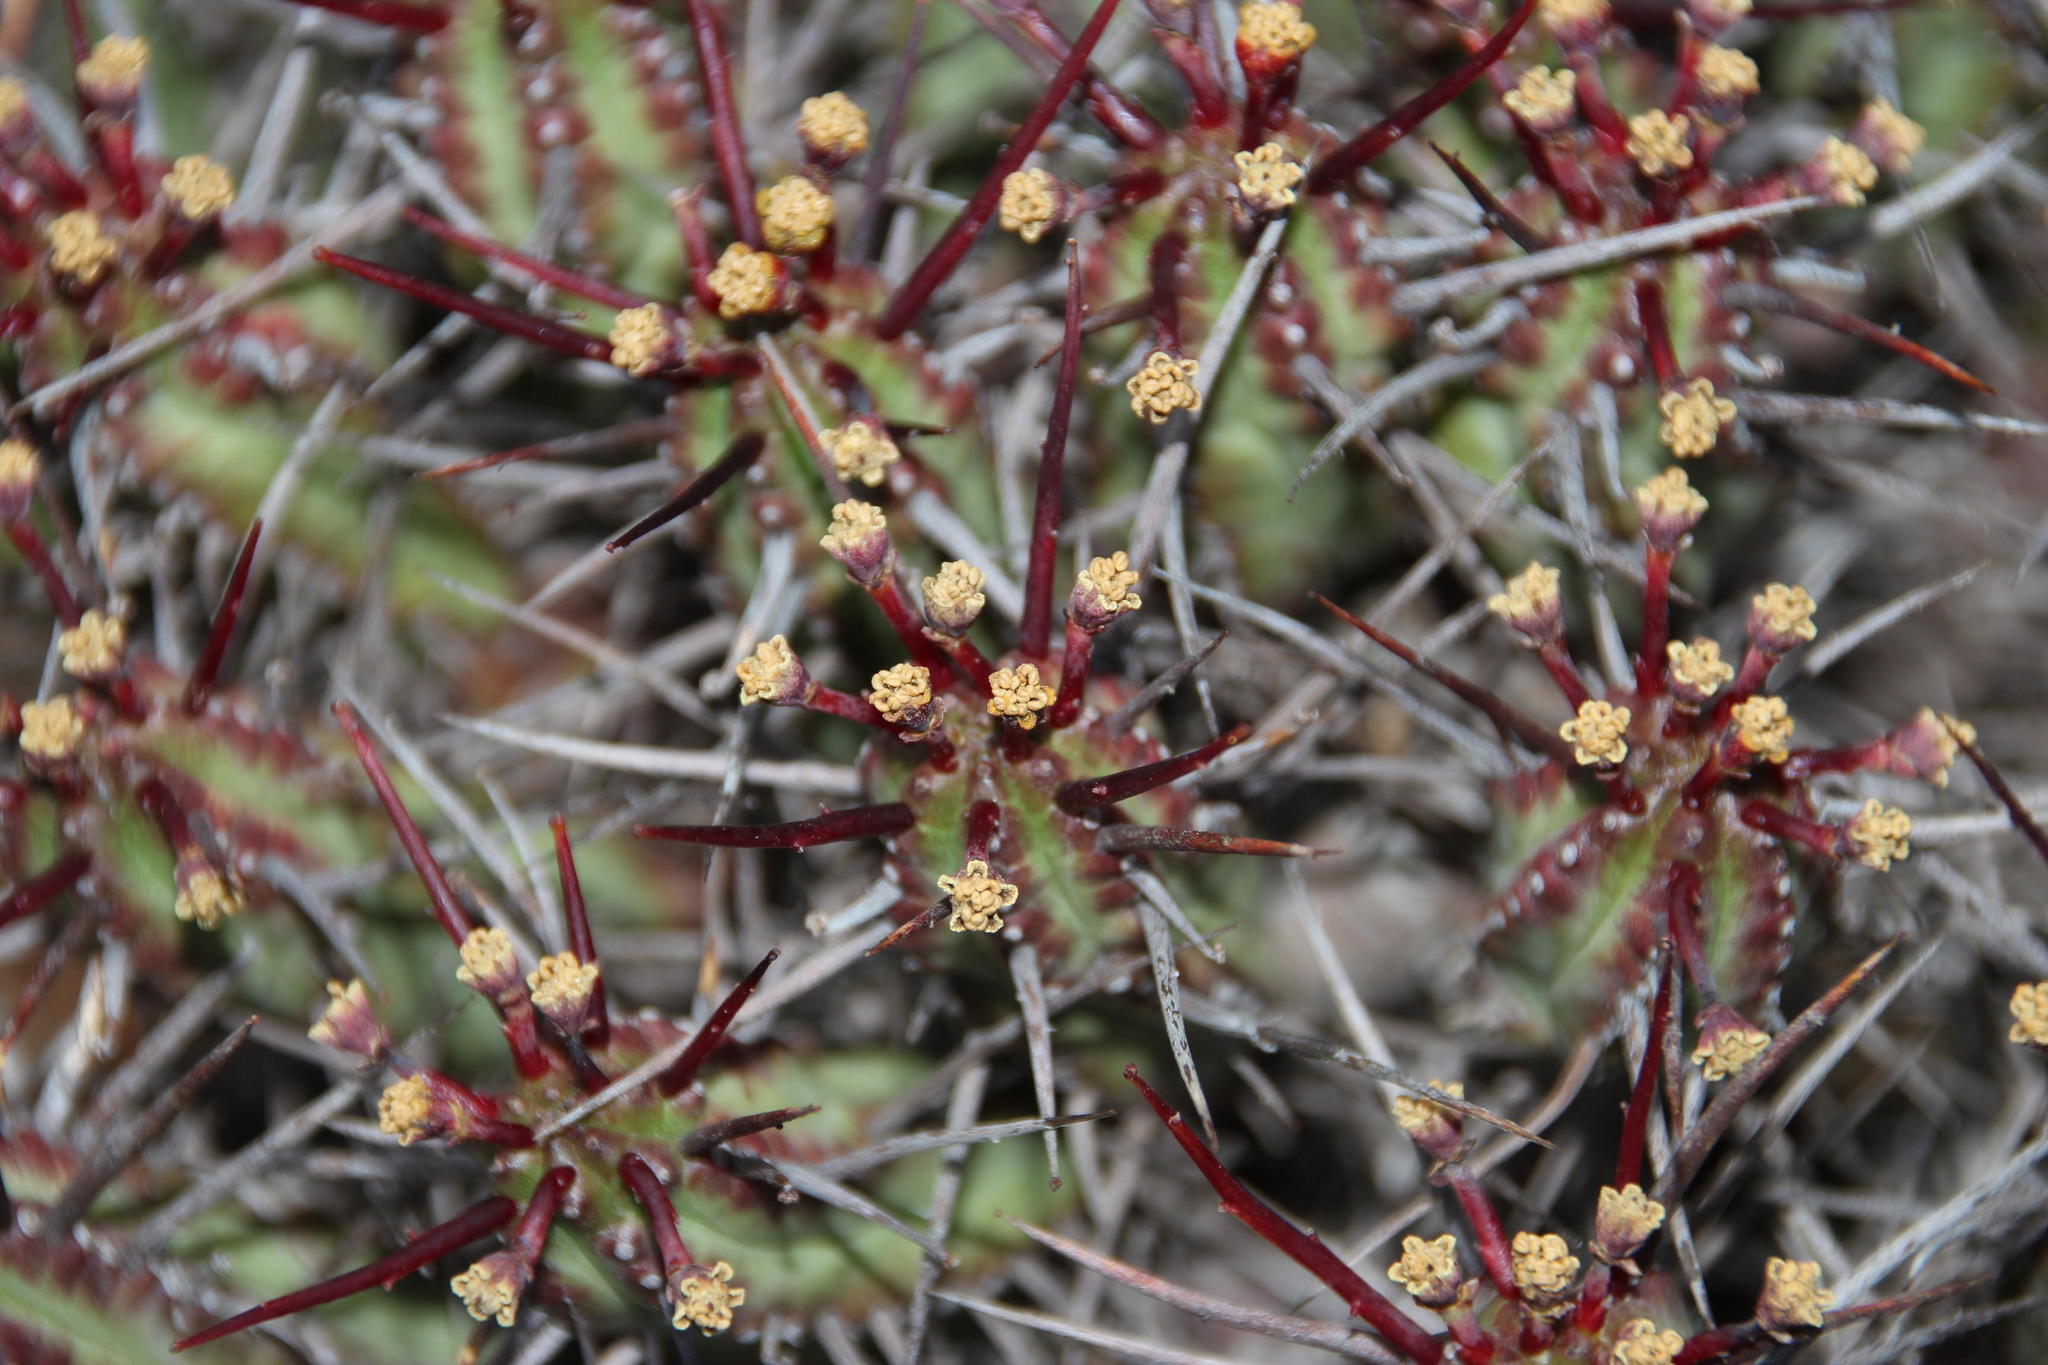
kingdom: Plantae
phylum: Tracheophyta
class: Magnoliopsida
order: Malpighiales
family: Euphorbiaceae
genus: Euphorbia
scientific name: Euphorbia heptagona
